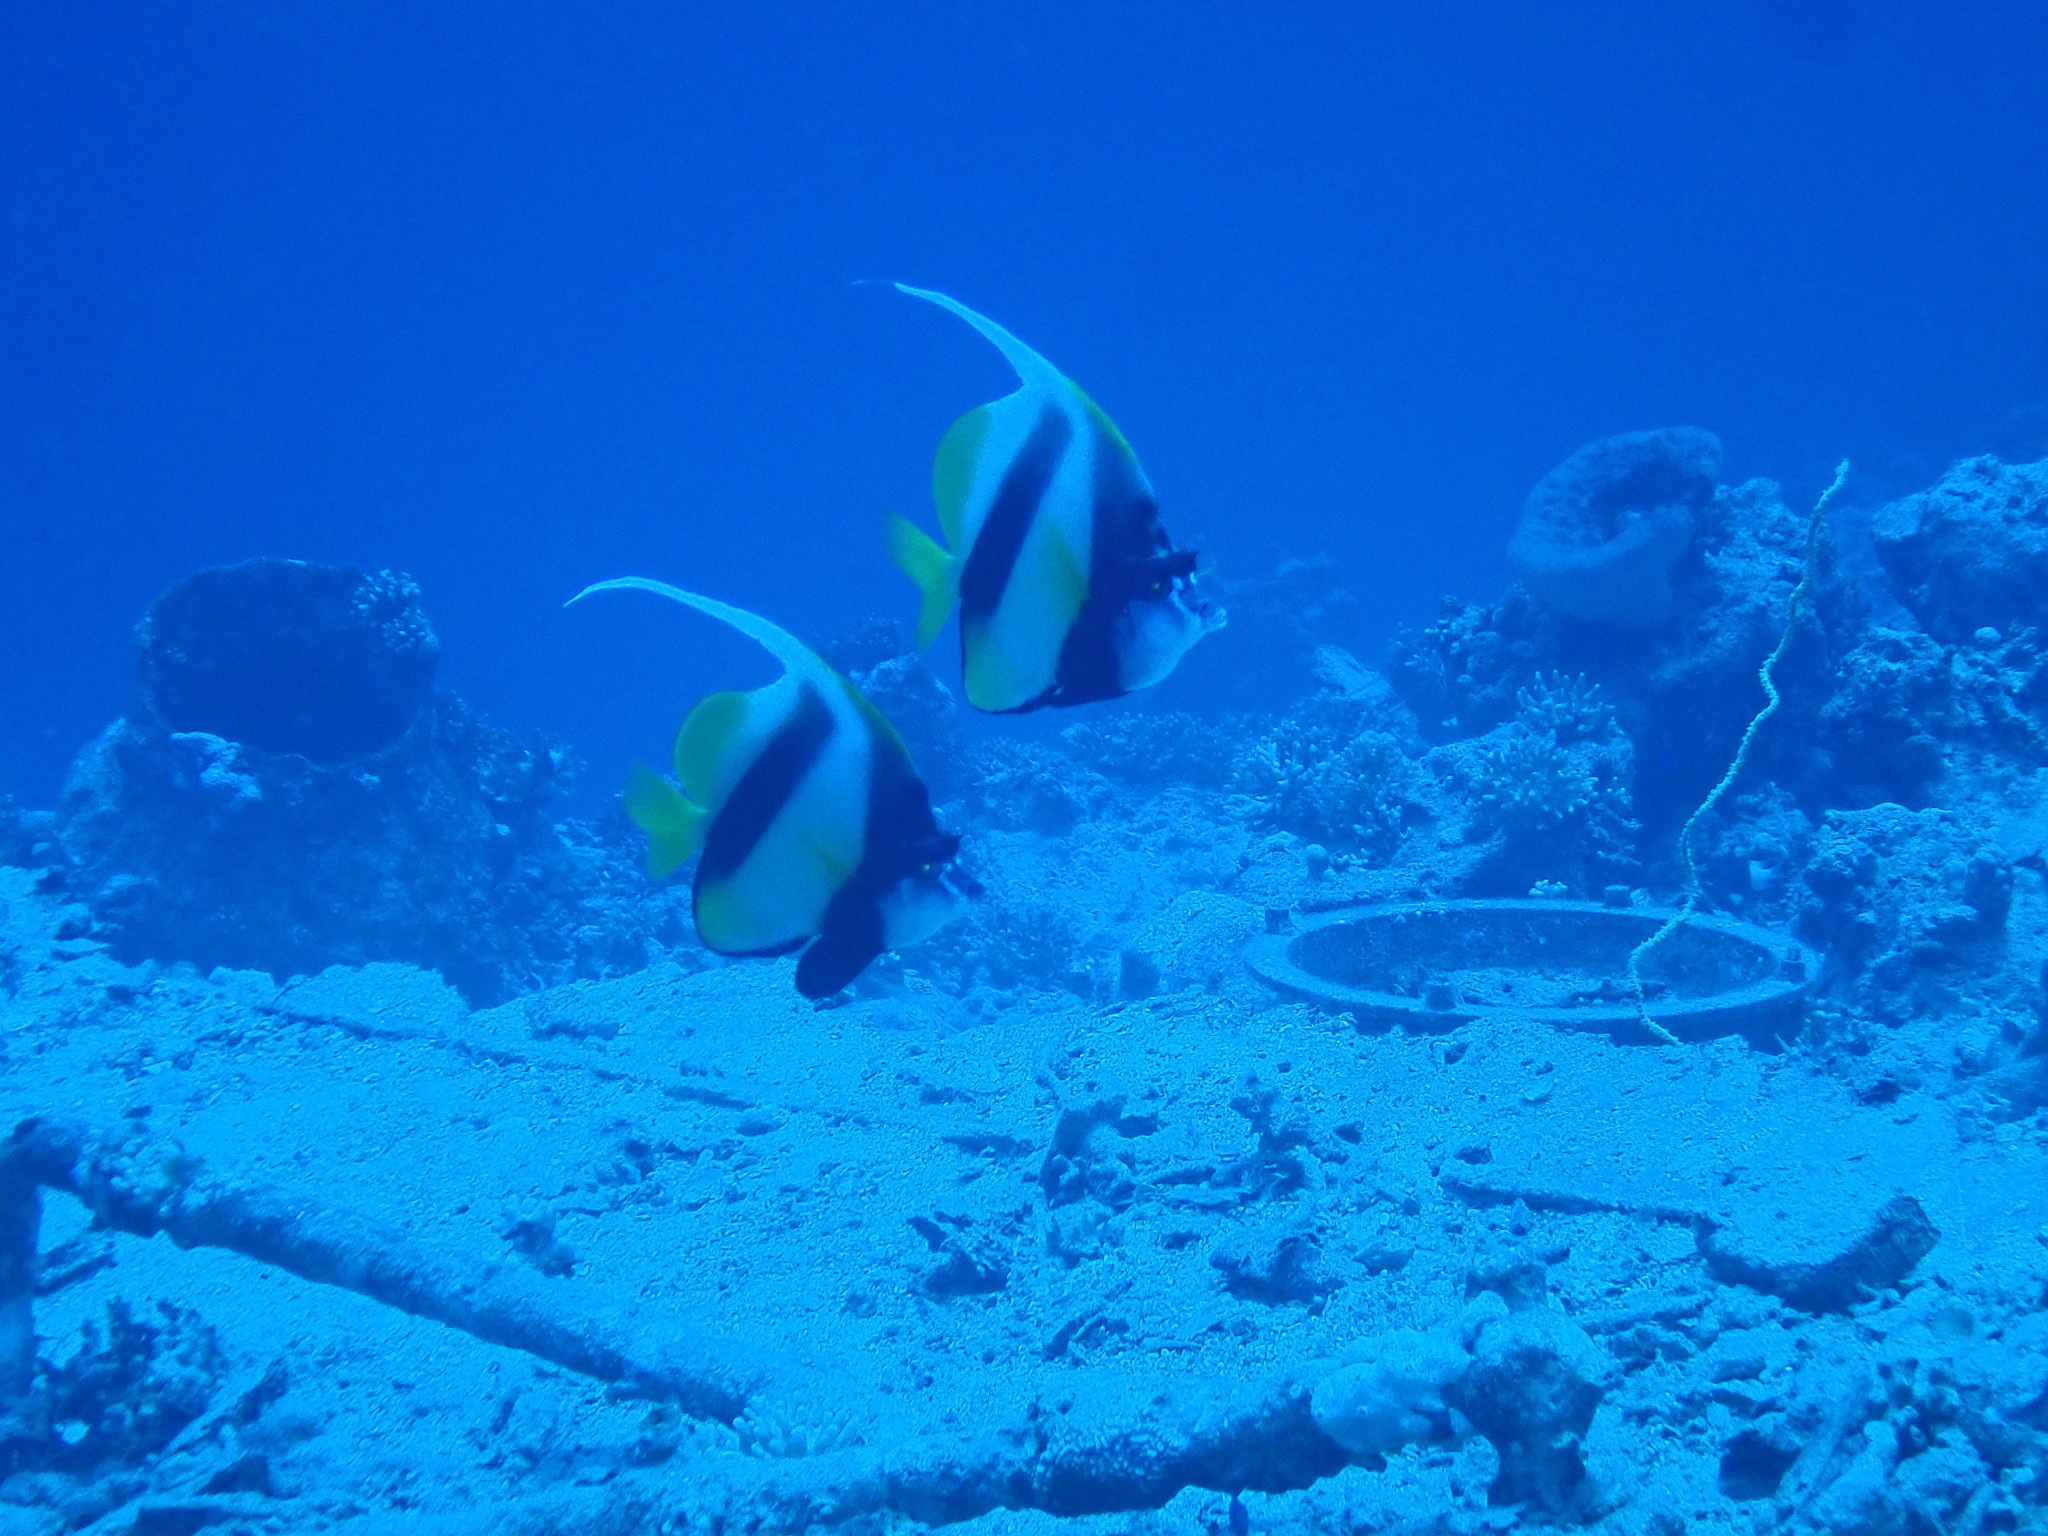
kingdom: Animalia
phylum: Chordata
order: Perciformes
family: Chaetodontidae
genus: Heniochus
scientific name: Heniochus intermedius
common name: Red sea bannerfish
